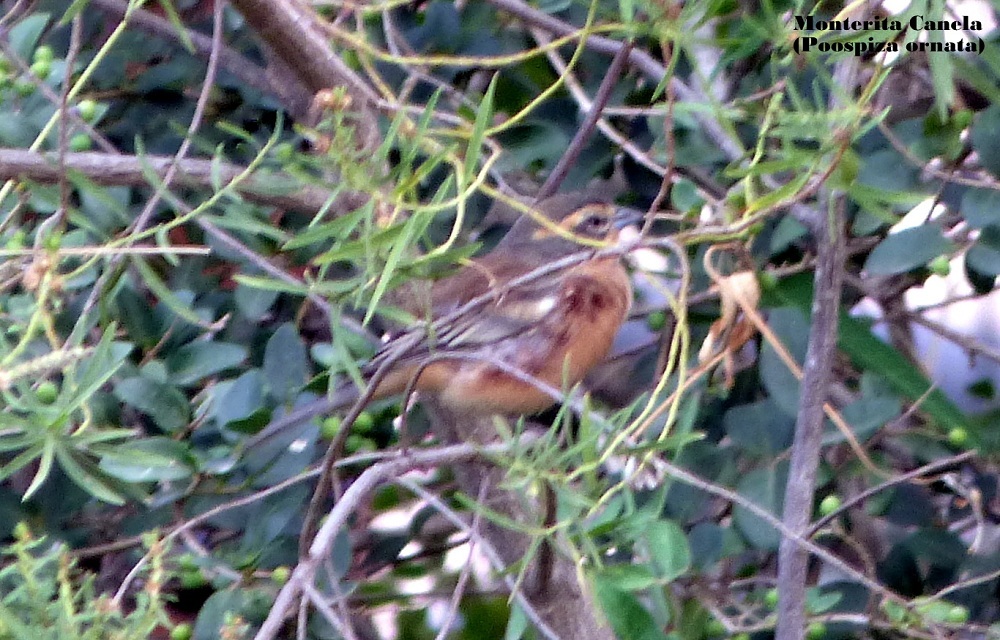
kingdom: Animalia
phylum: Chordata
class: Aves
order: Passeriformes
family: Thraupidae
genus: Poospiza
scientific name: Poospiza ornata
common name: Cinnamon warbling finch
